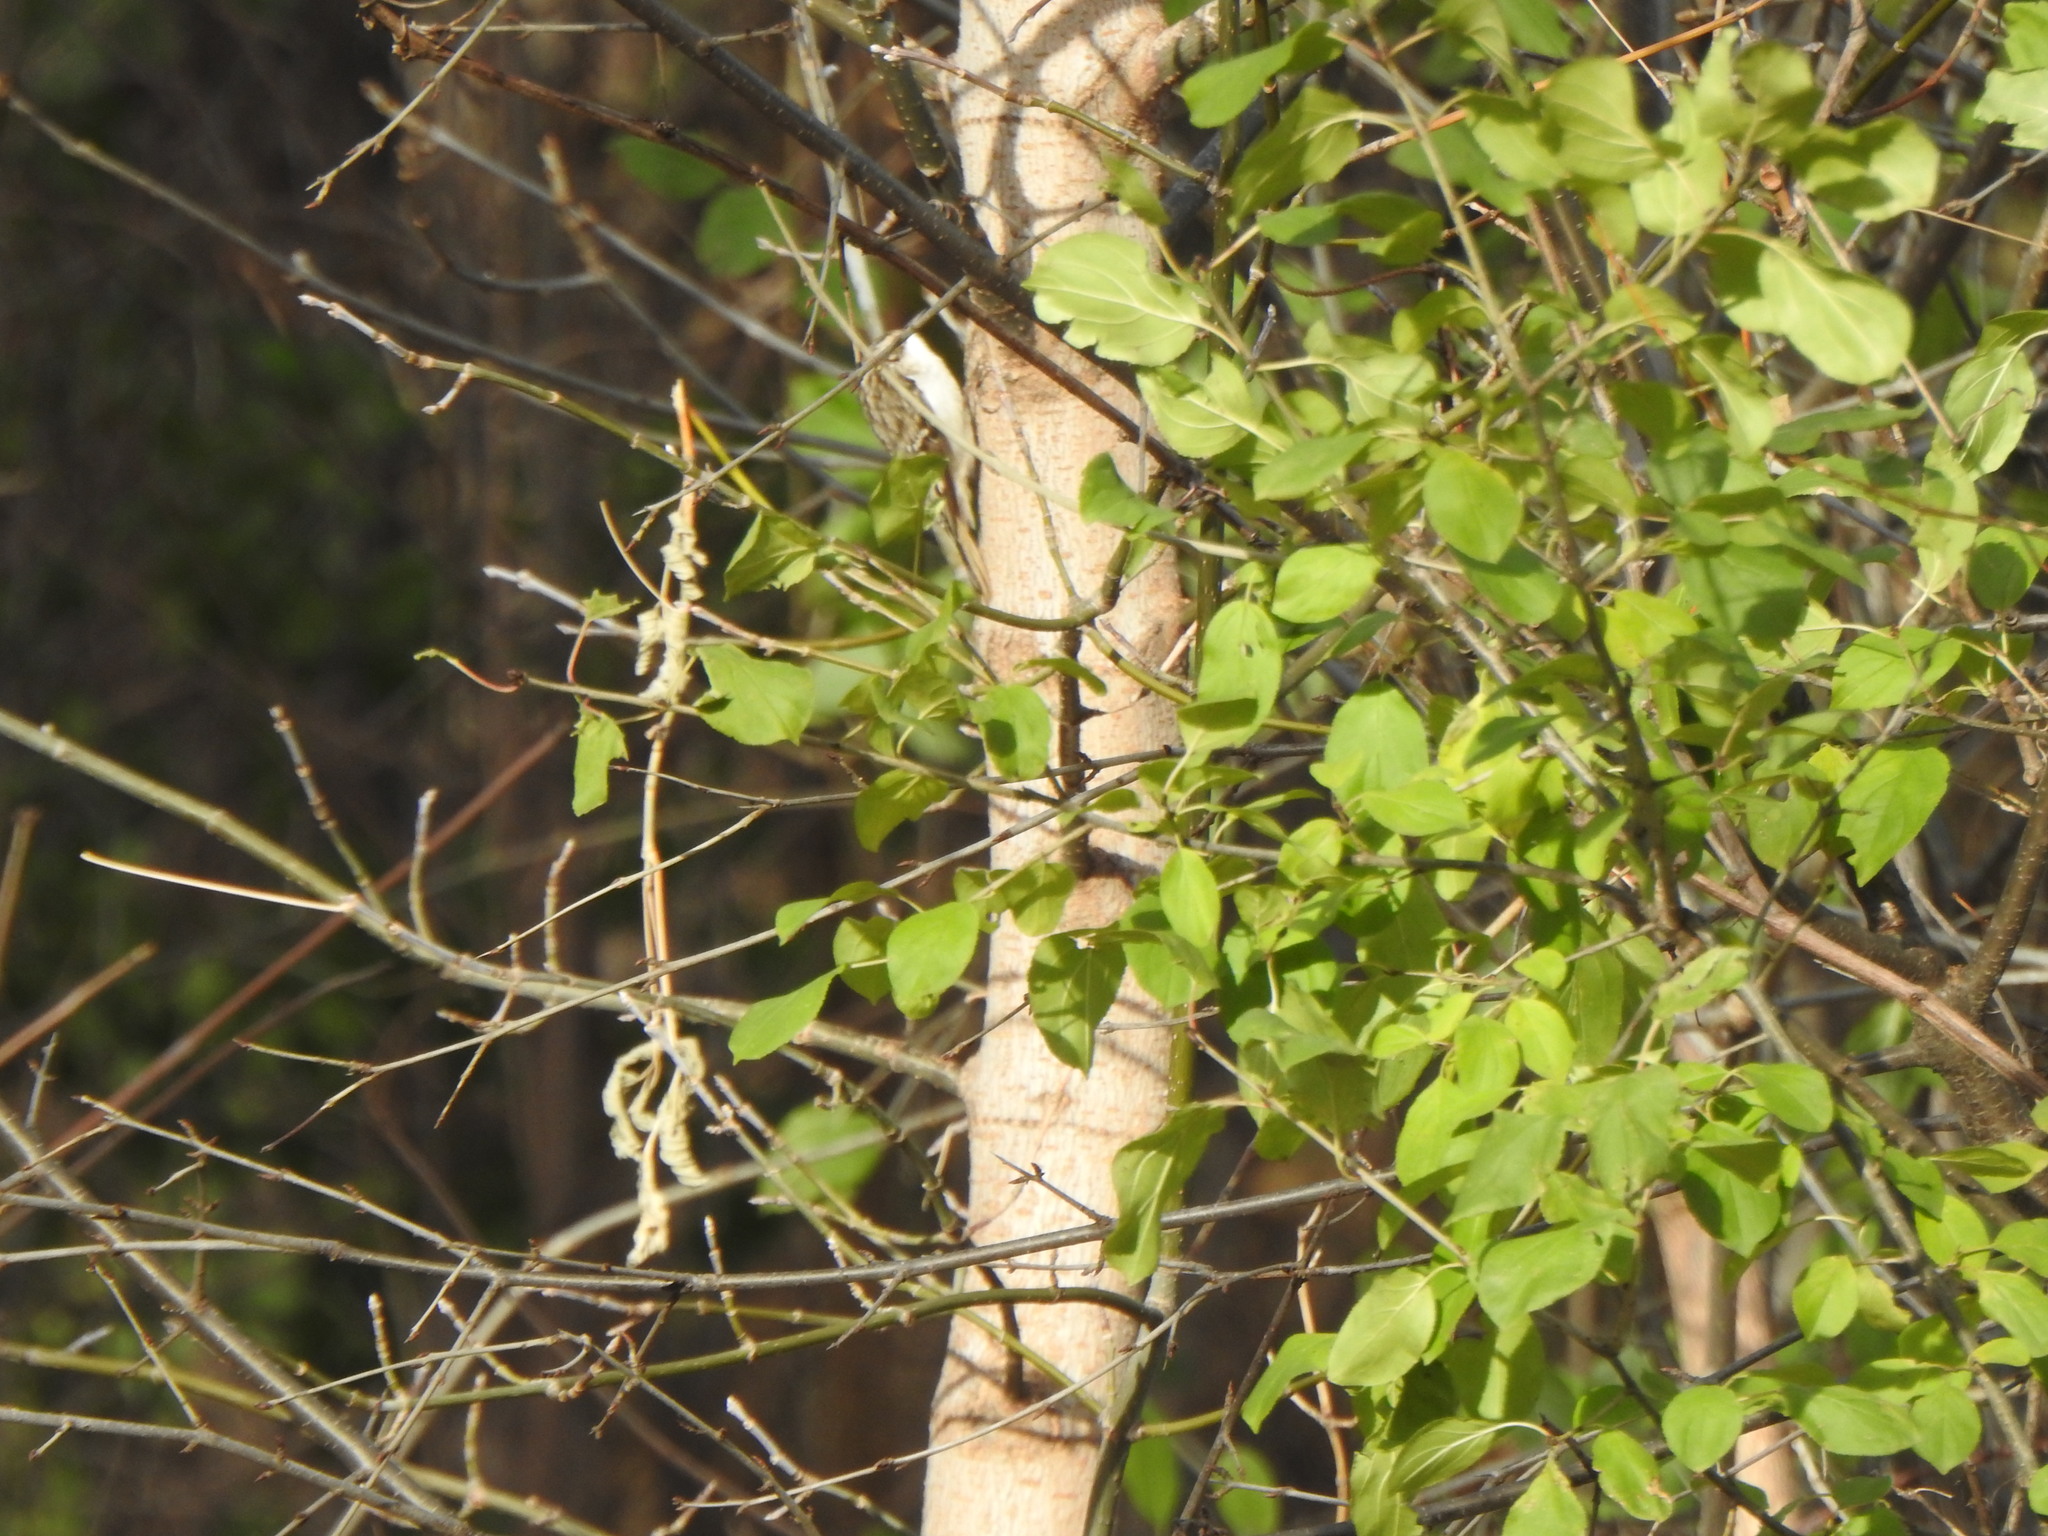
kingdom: Animalia
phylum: Chordata
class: Aves
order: Passeriformes
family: Certhiidae
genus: Certhia
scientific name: Certhia americana
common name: Brown creeper
